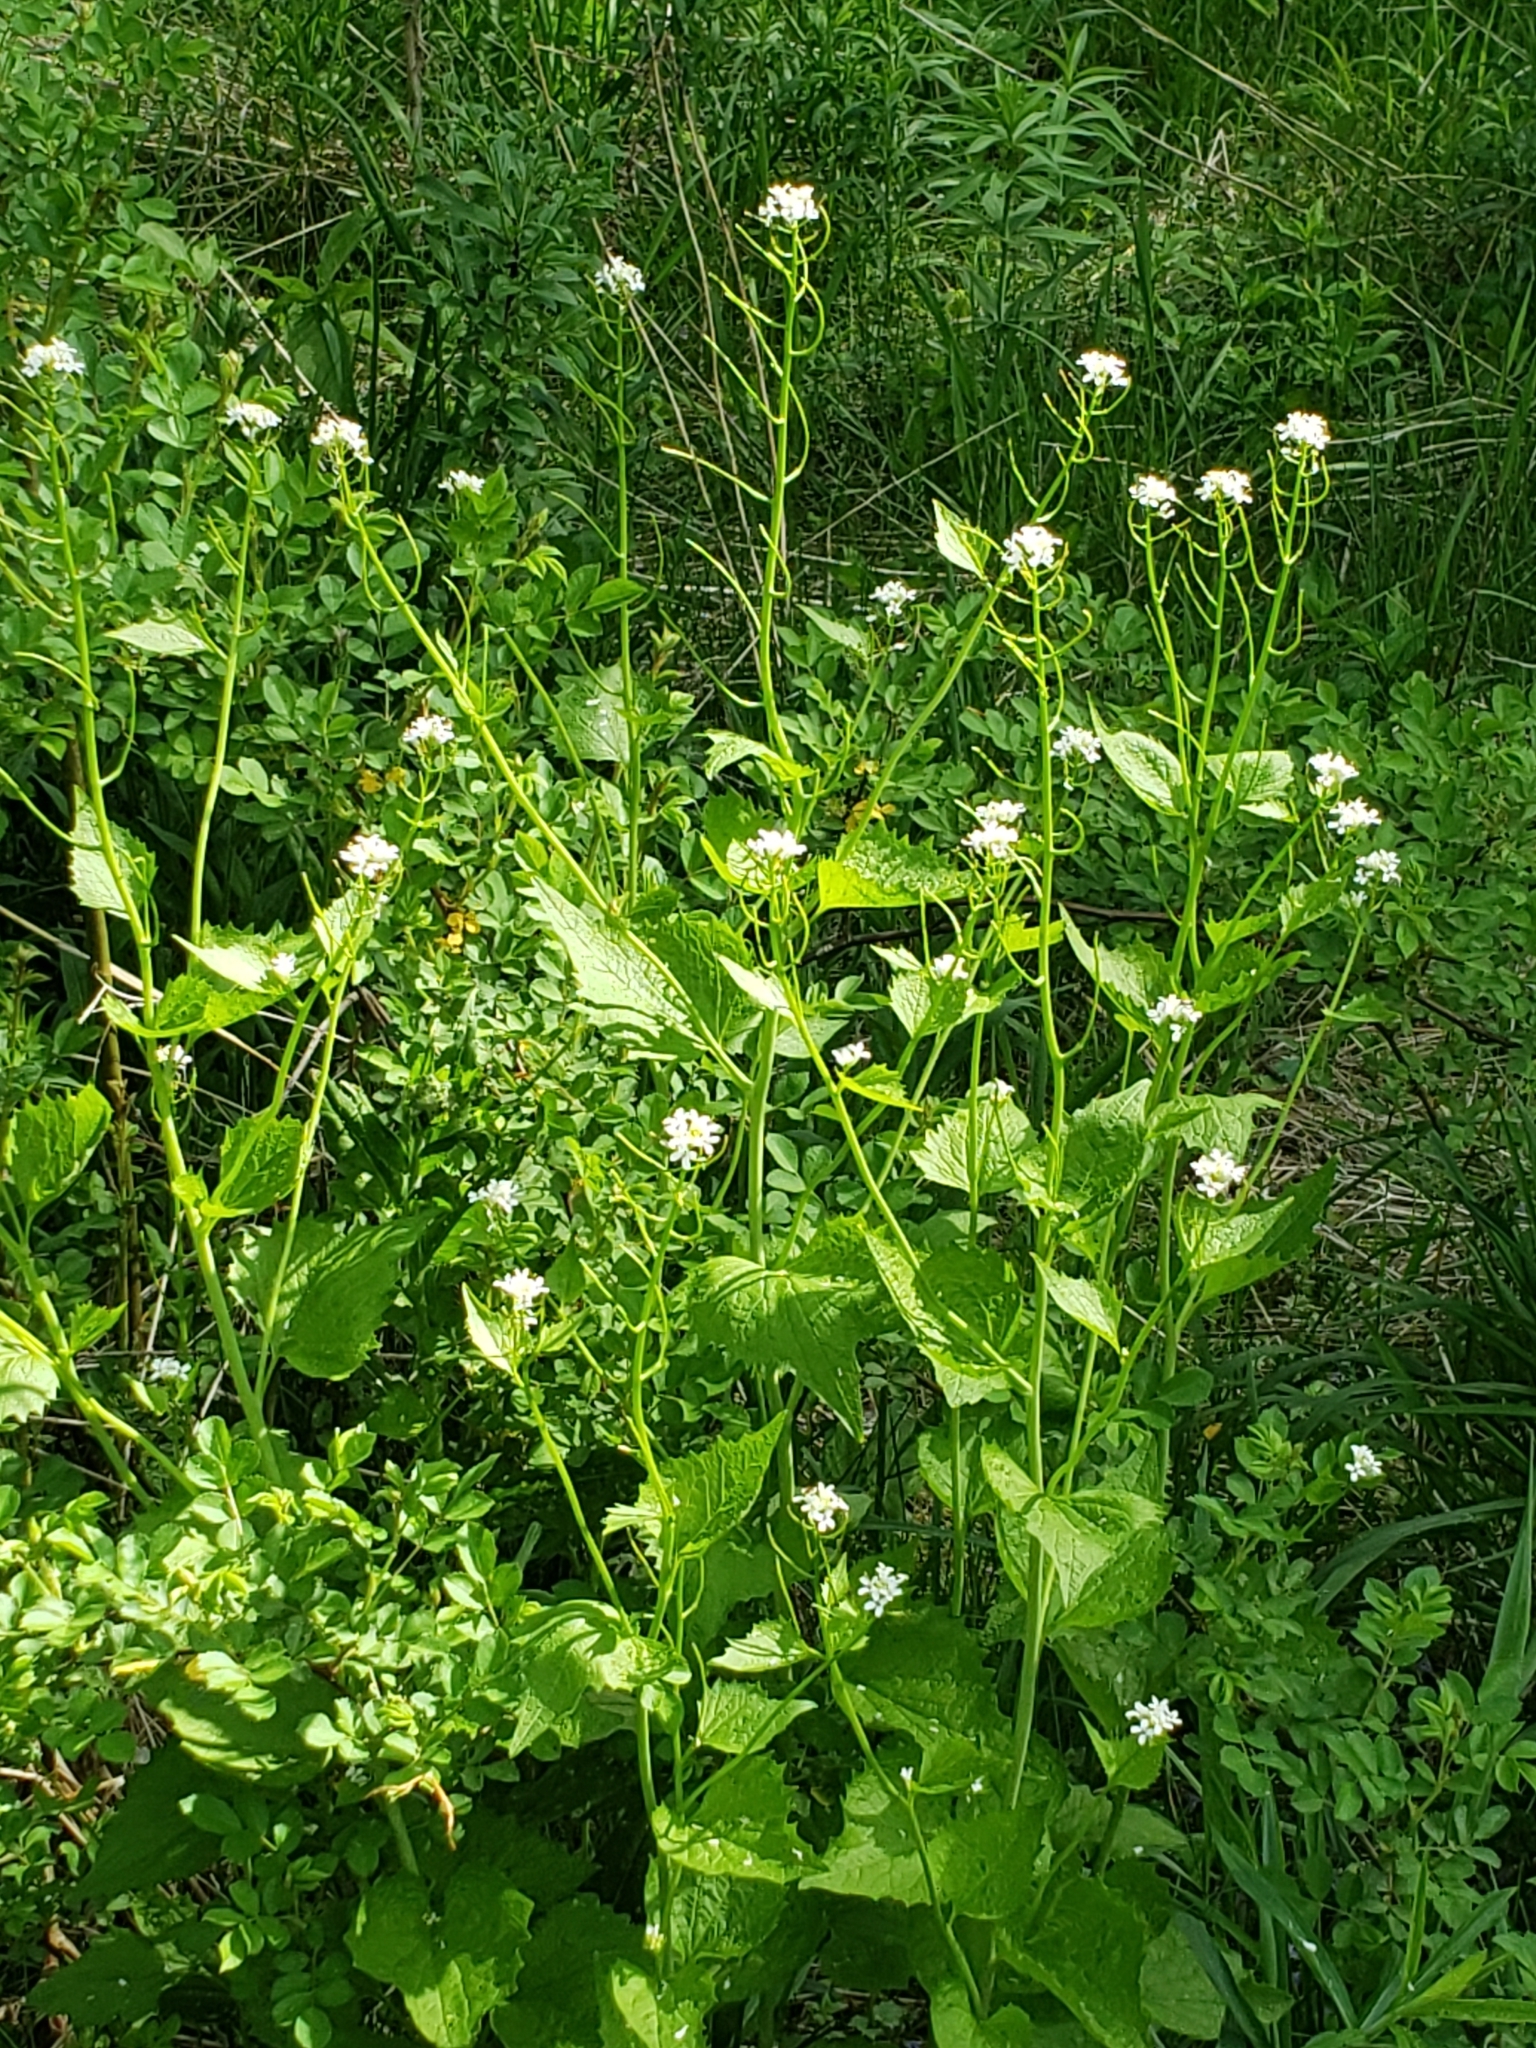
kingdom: Plantae
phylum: Tracheophyta
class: Magnoliopsida
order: Brassicales
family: Brassicaceae
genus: Alliaria
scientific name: Alliaria petiolata
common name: Garlic mustard
